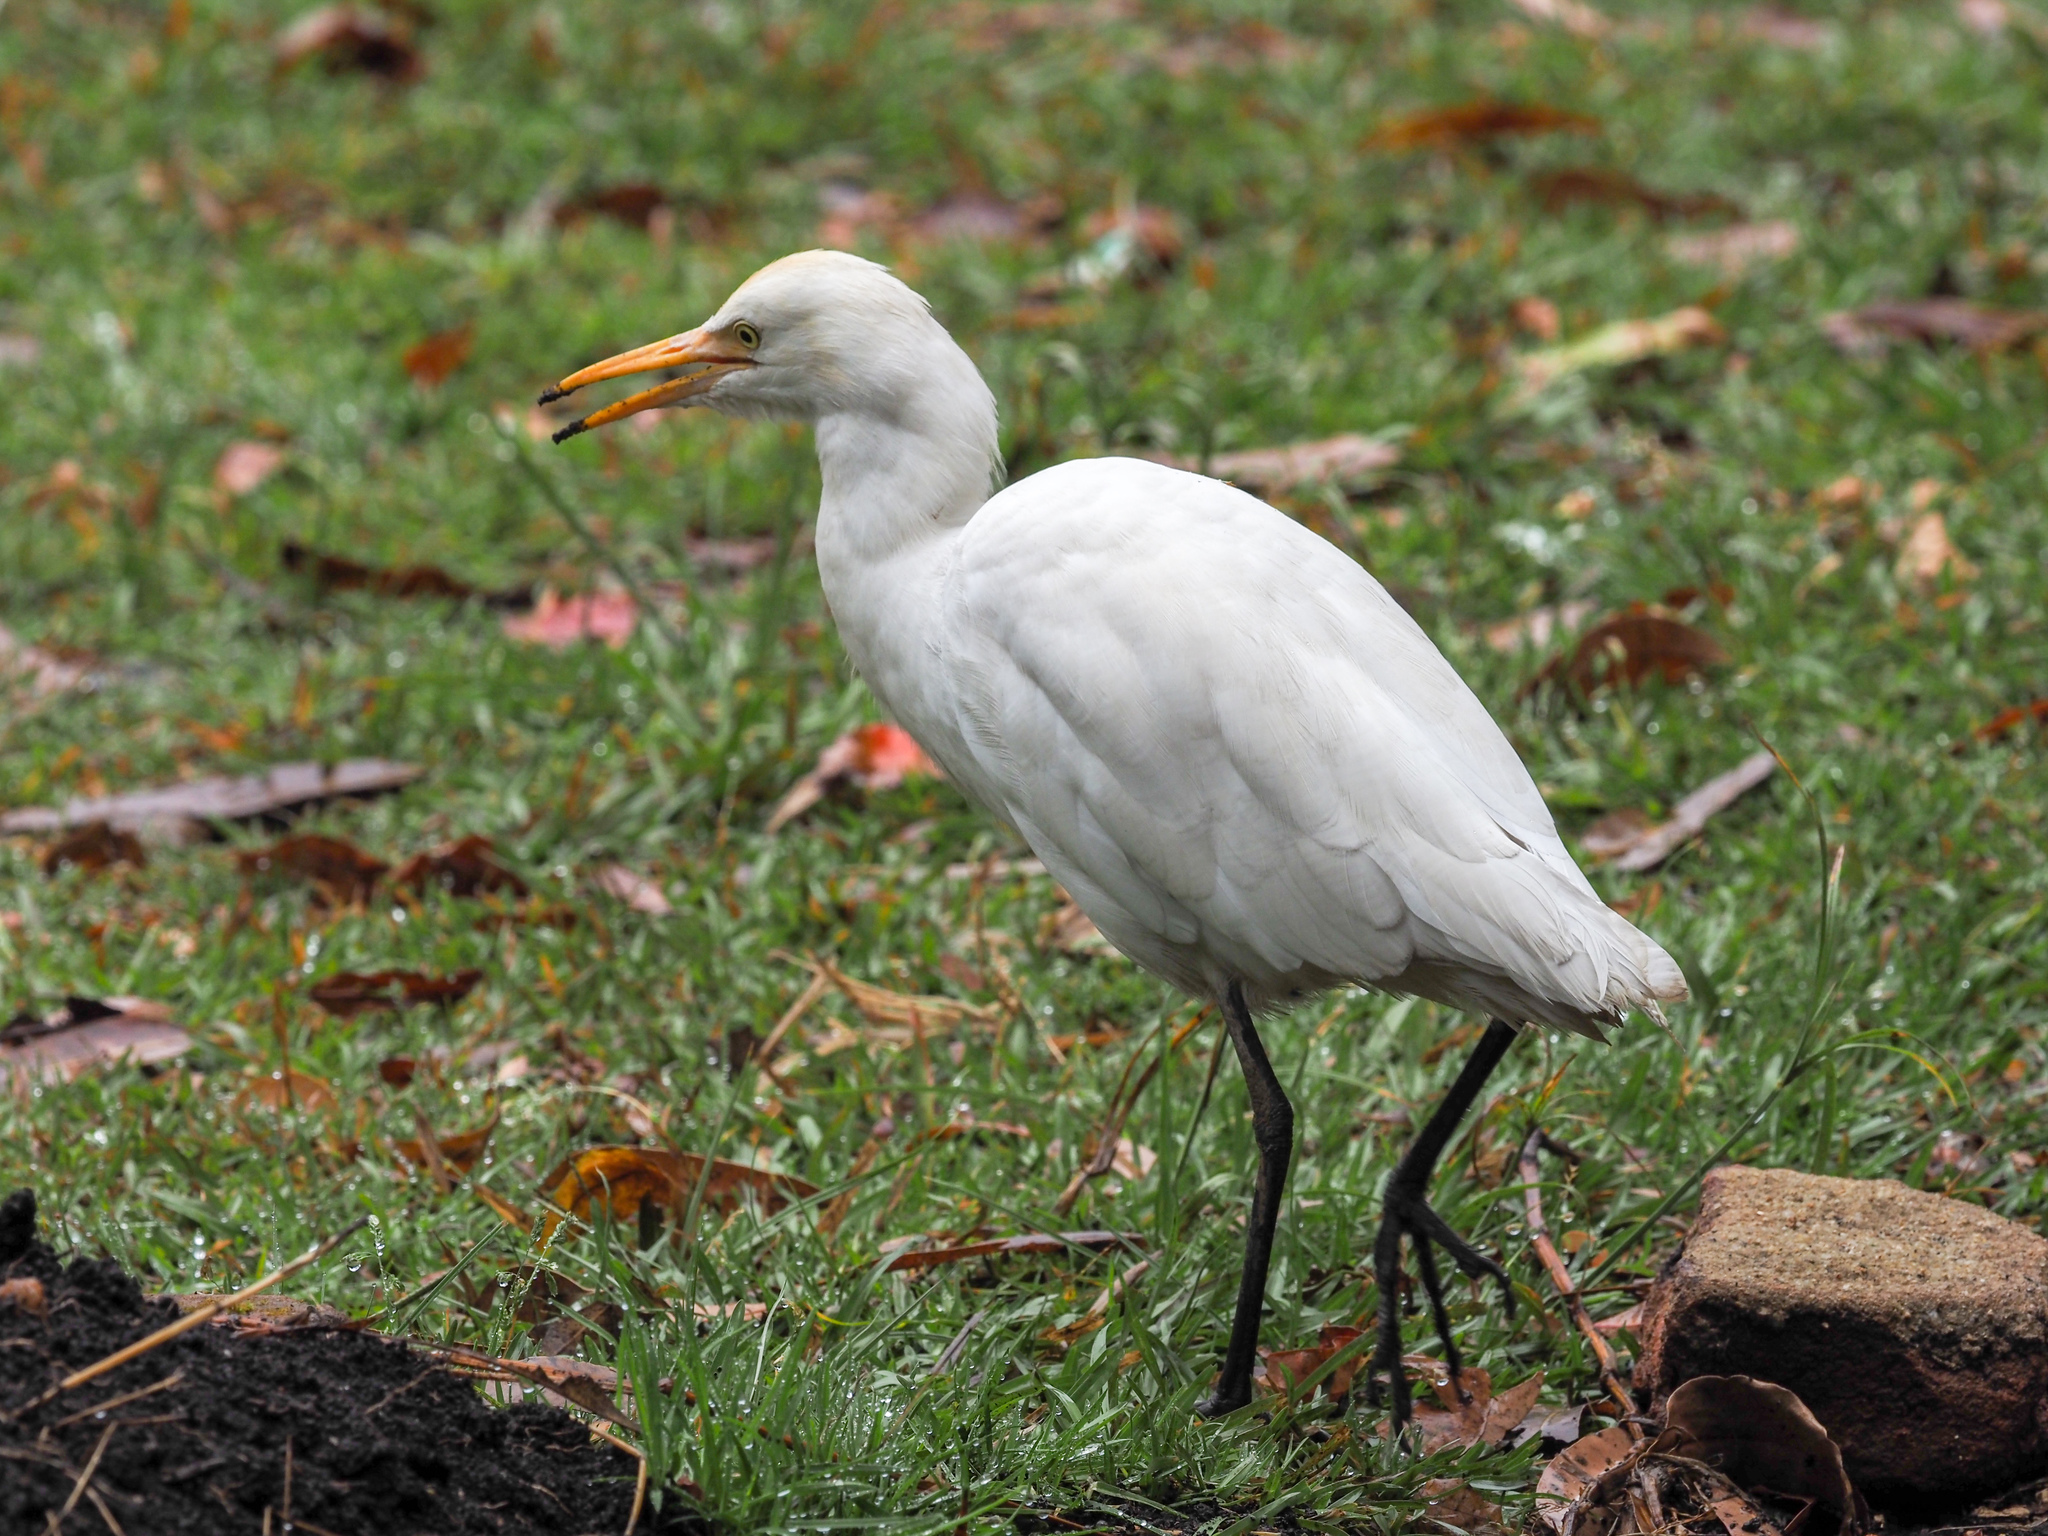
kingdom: Animalia
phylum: Chordata
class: Aves
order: Pelecaniformes
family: Ardeidae
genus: Bubulcus
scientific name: Bubulcus coromandus
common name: Eastern cattle egret
